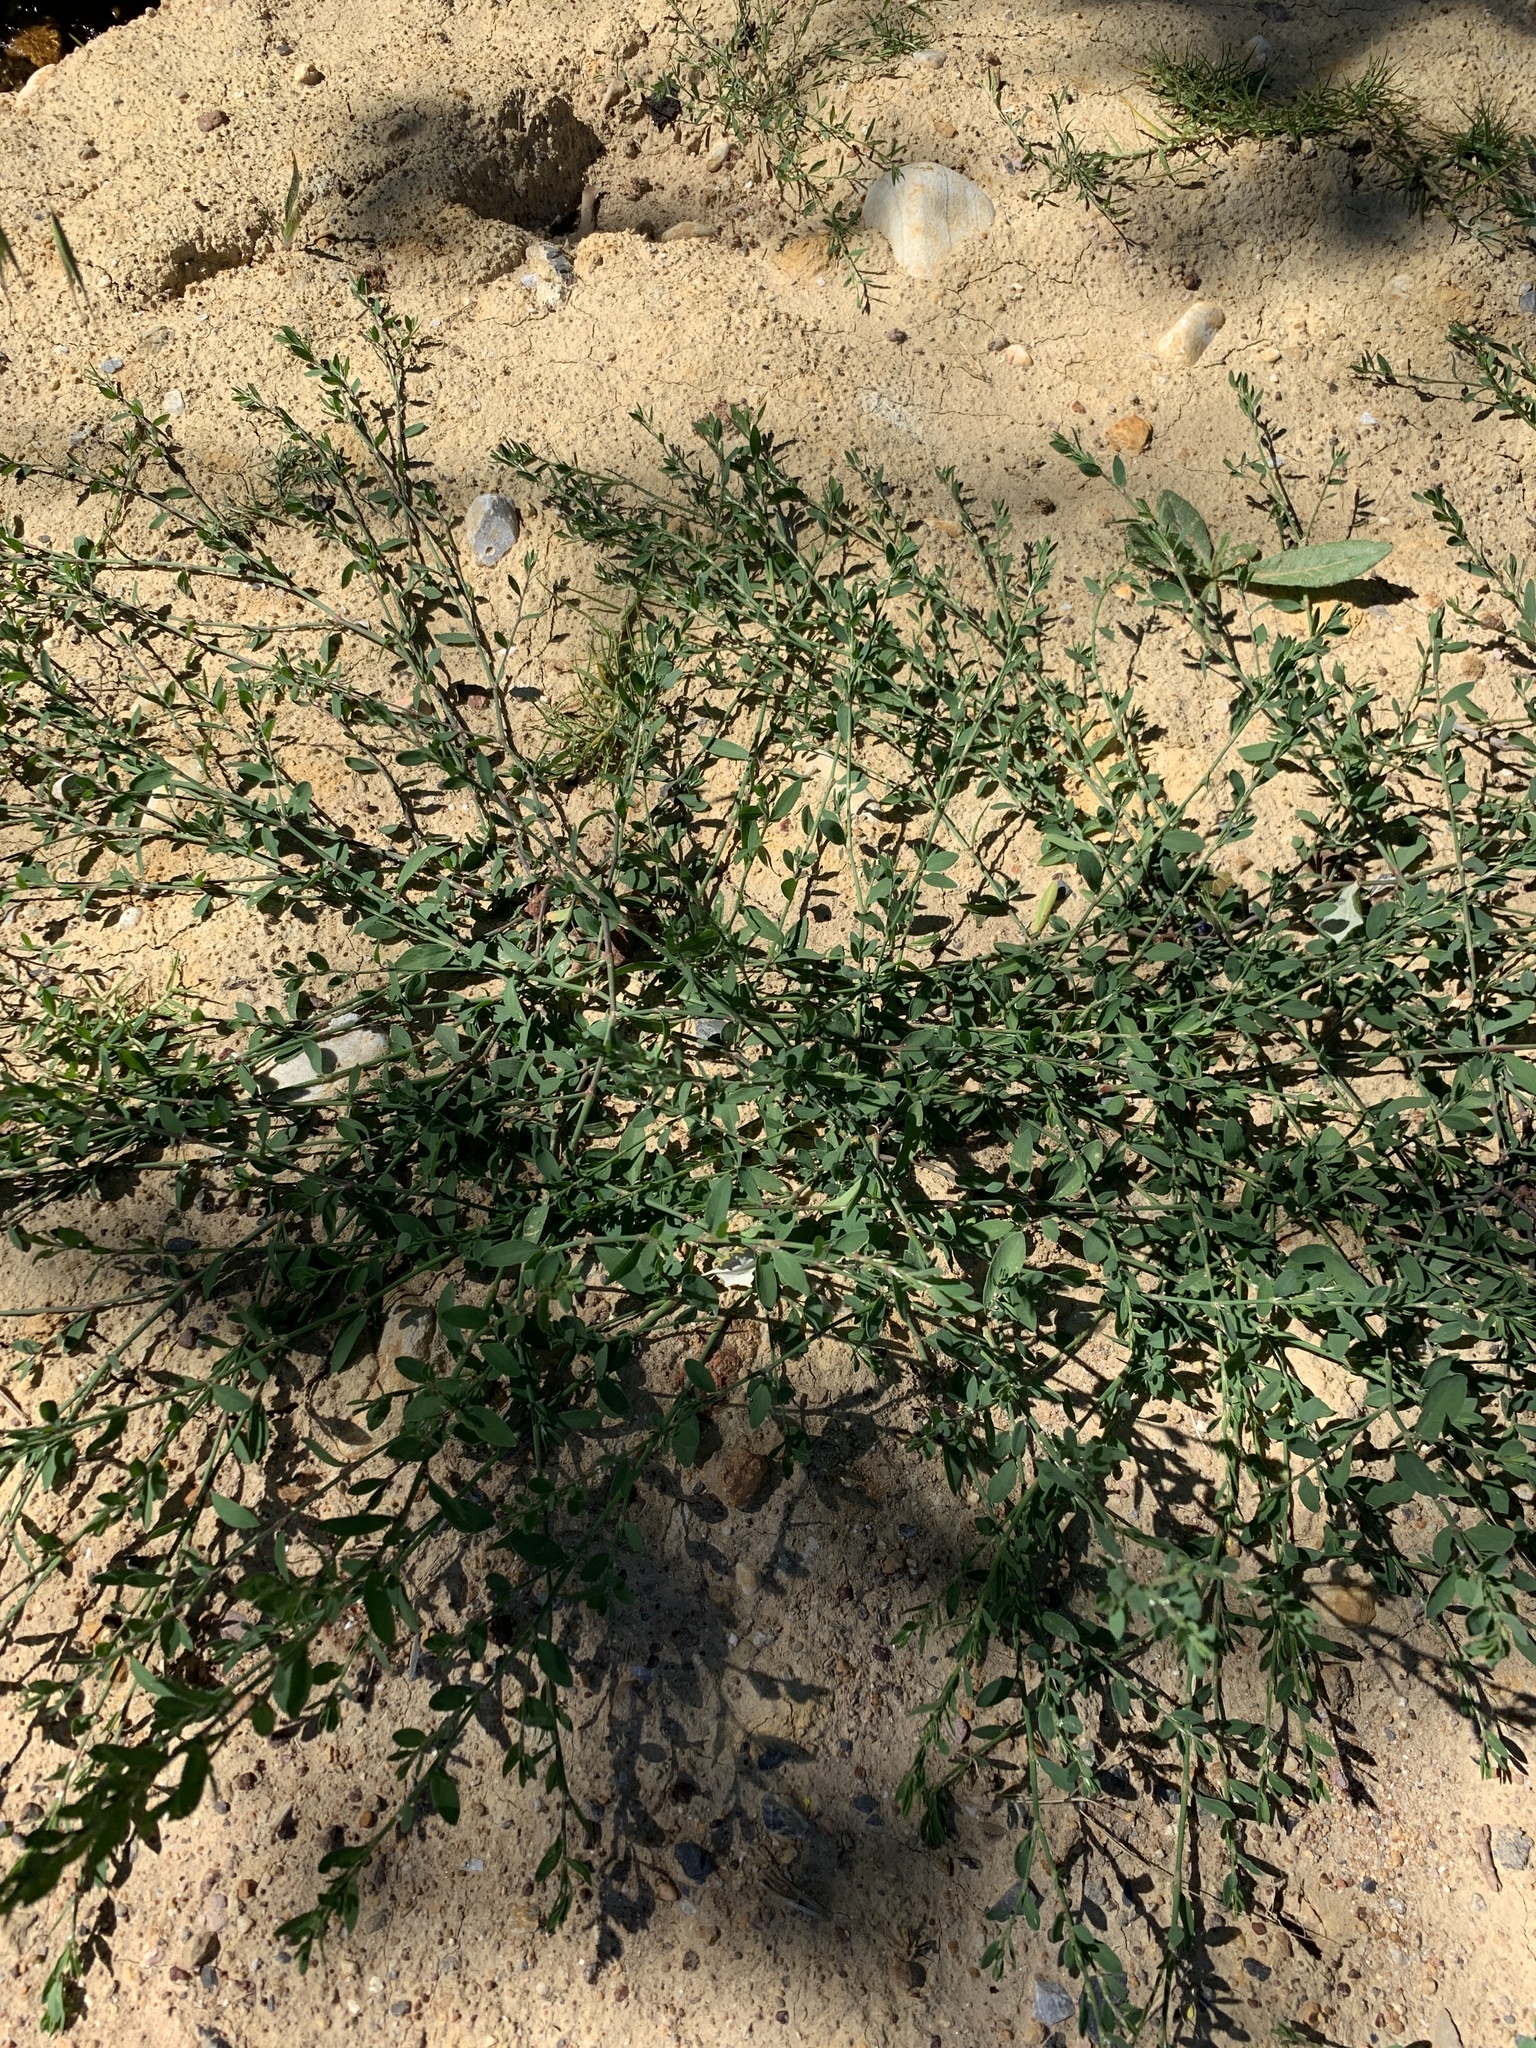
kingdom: Plantae
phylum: Tracheophyta
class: Magnoliopsida
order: Caryophyllales
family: Polygonaceae
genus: Polygonum
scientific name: Polygonum aviculare
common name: Prostrate knotweed
